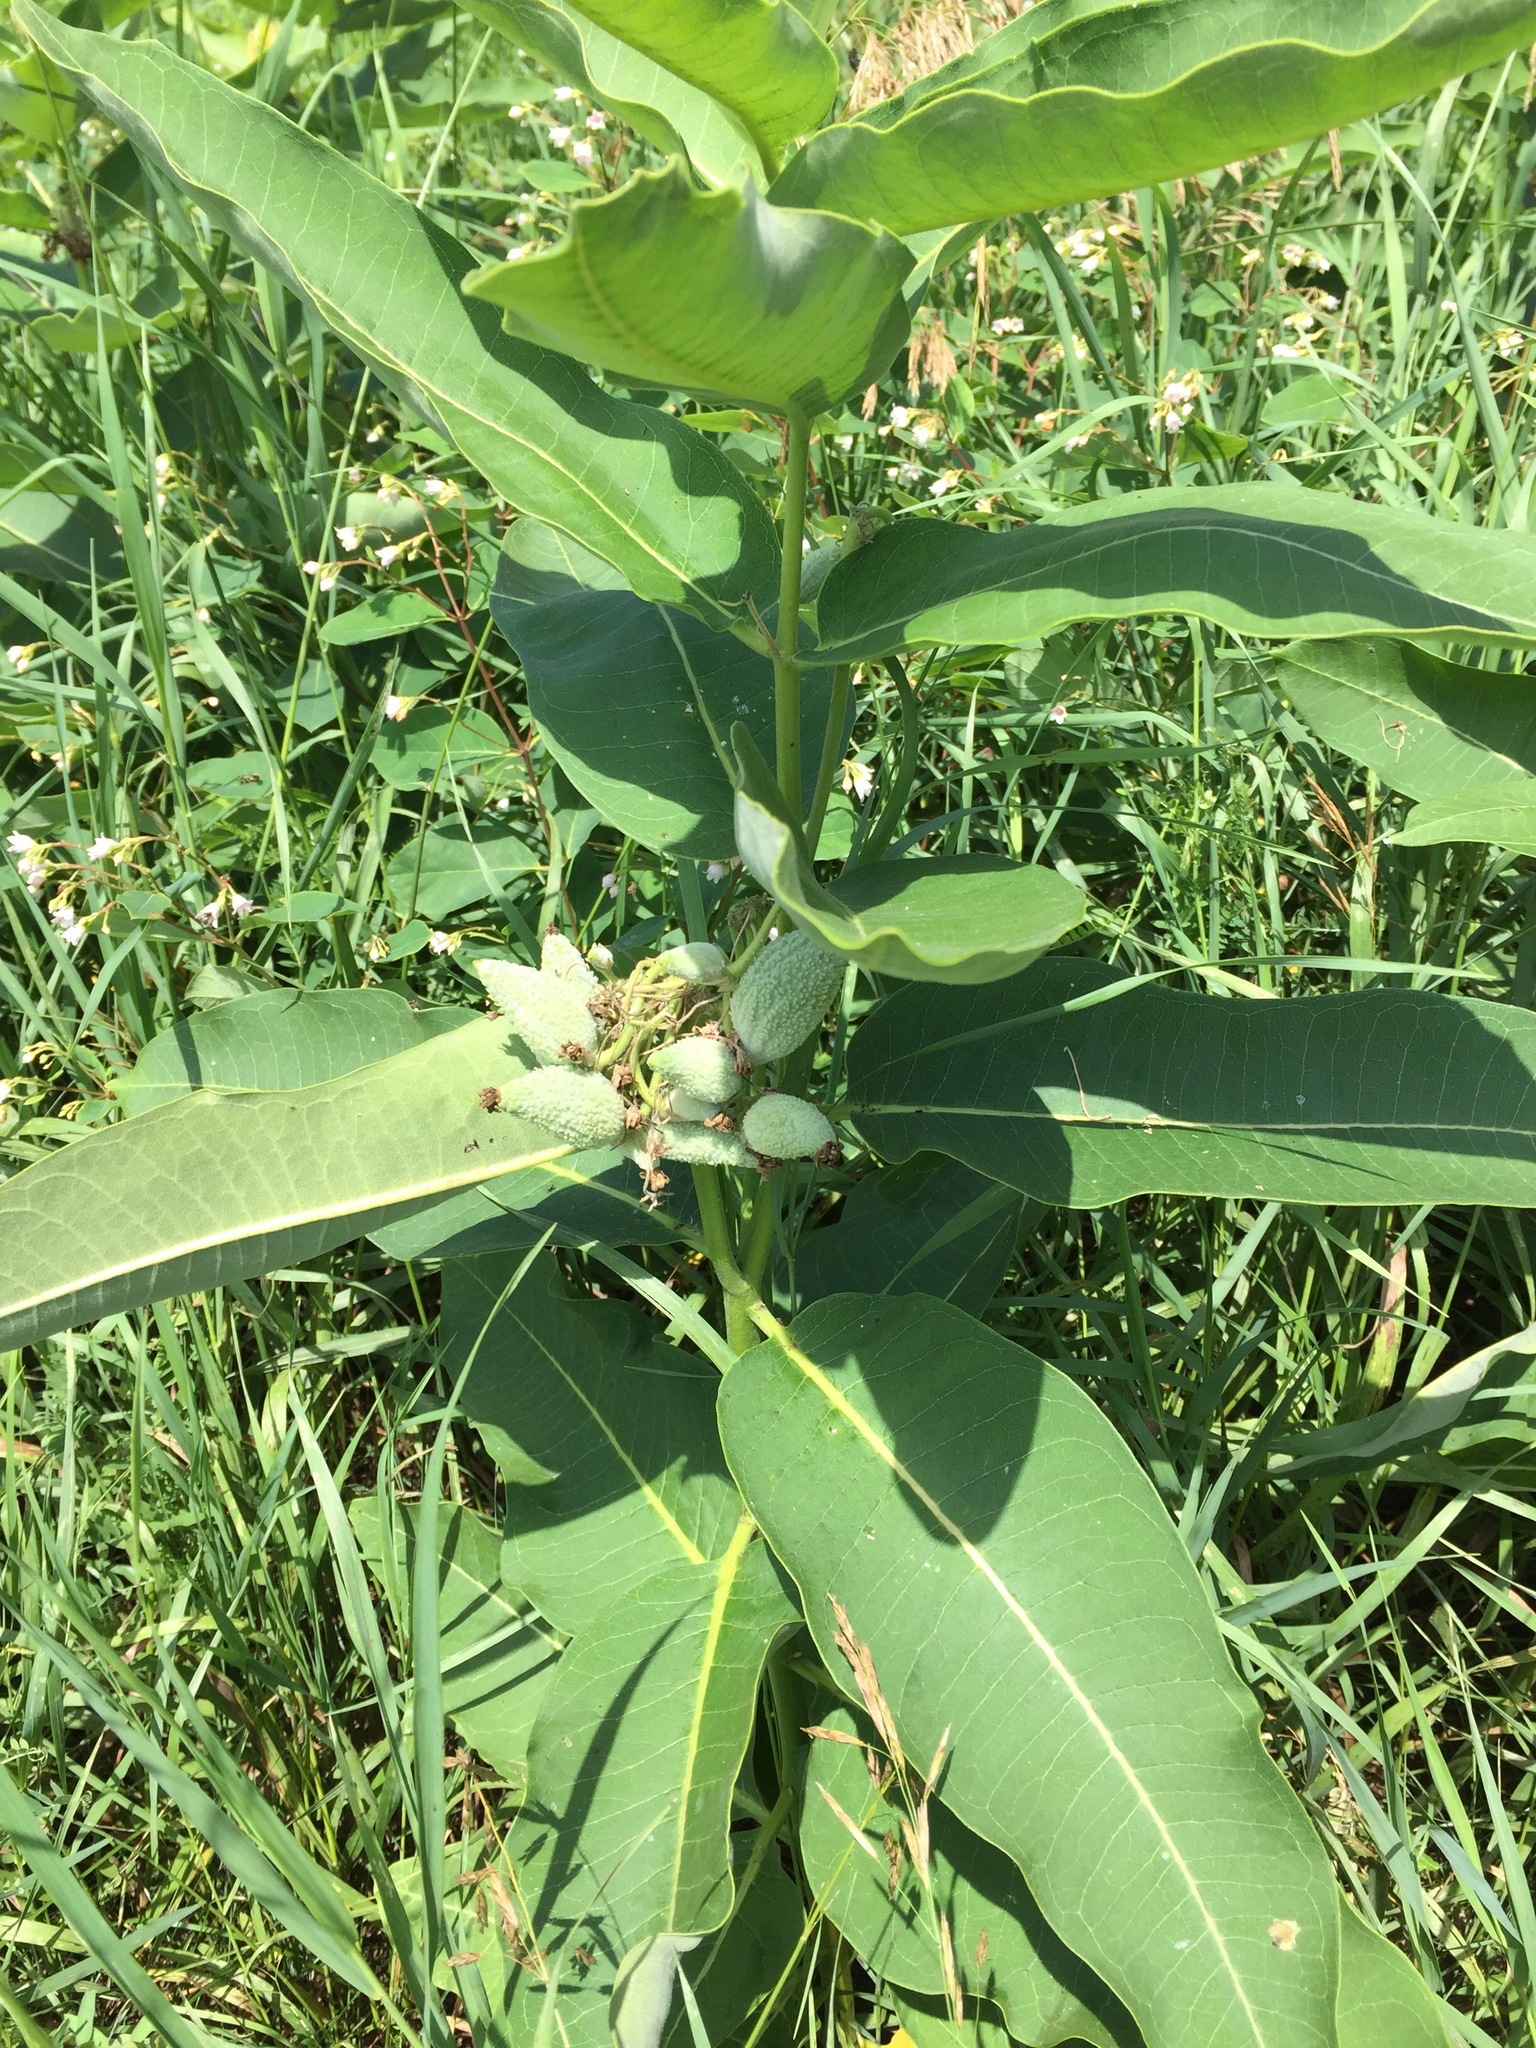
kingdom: Plantae
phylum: Tracheophyta
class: Magnoliopsida
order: Gentianales
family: Apocynaceae
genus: Asclepias
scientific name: Asclepias syriaca
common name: Common milkweed
